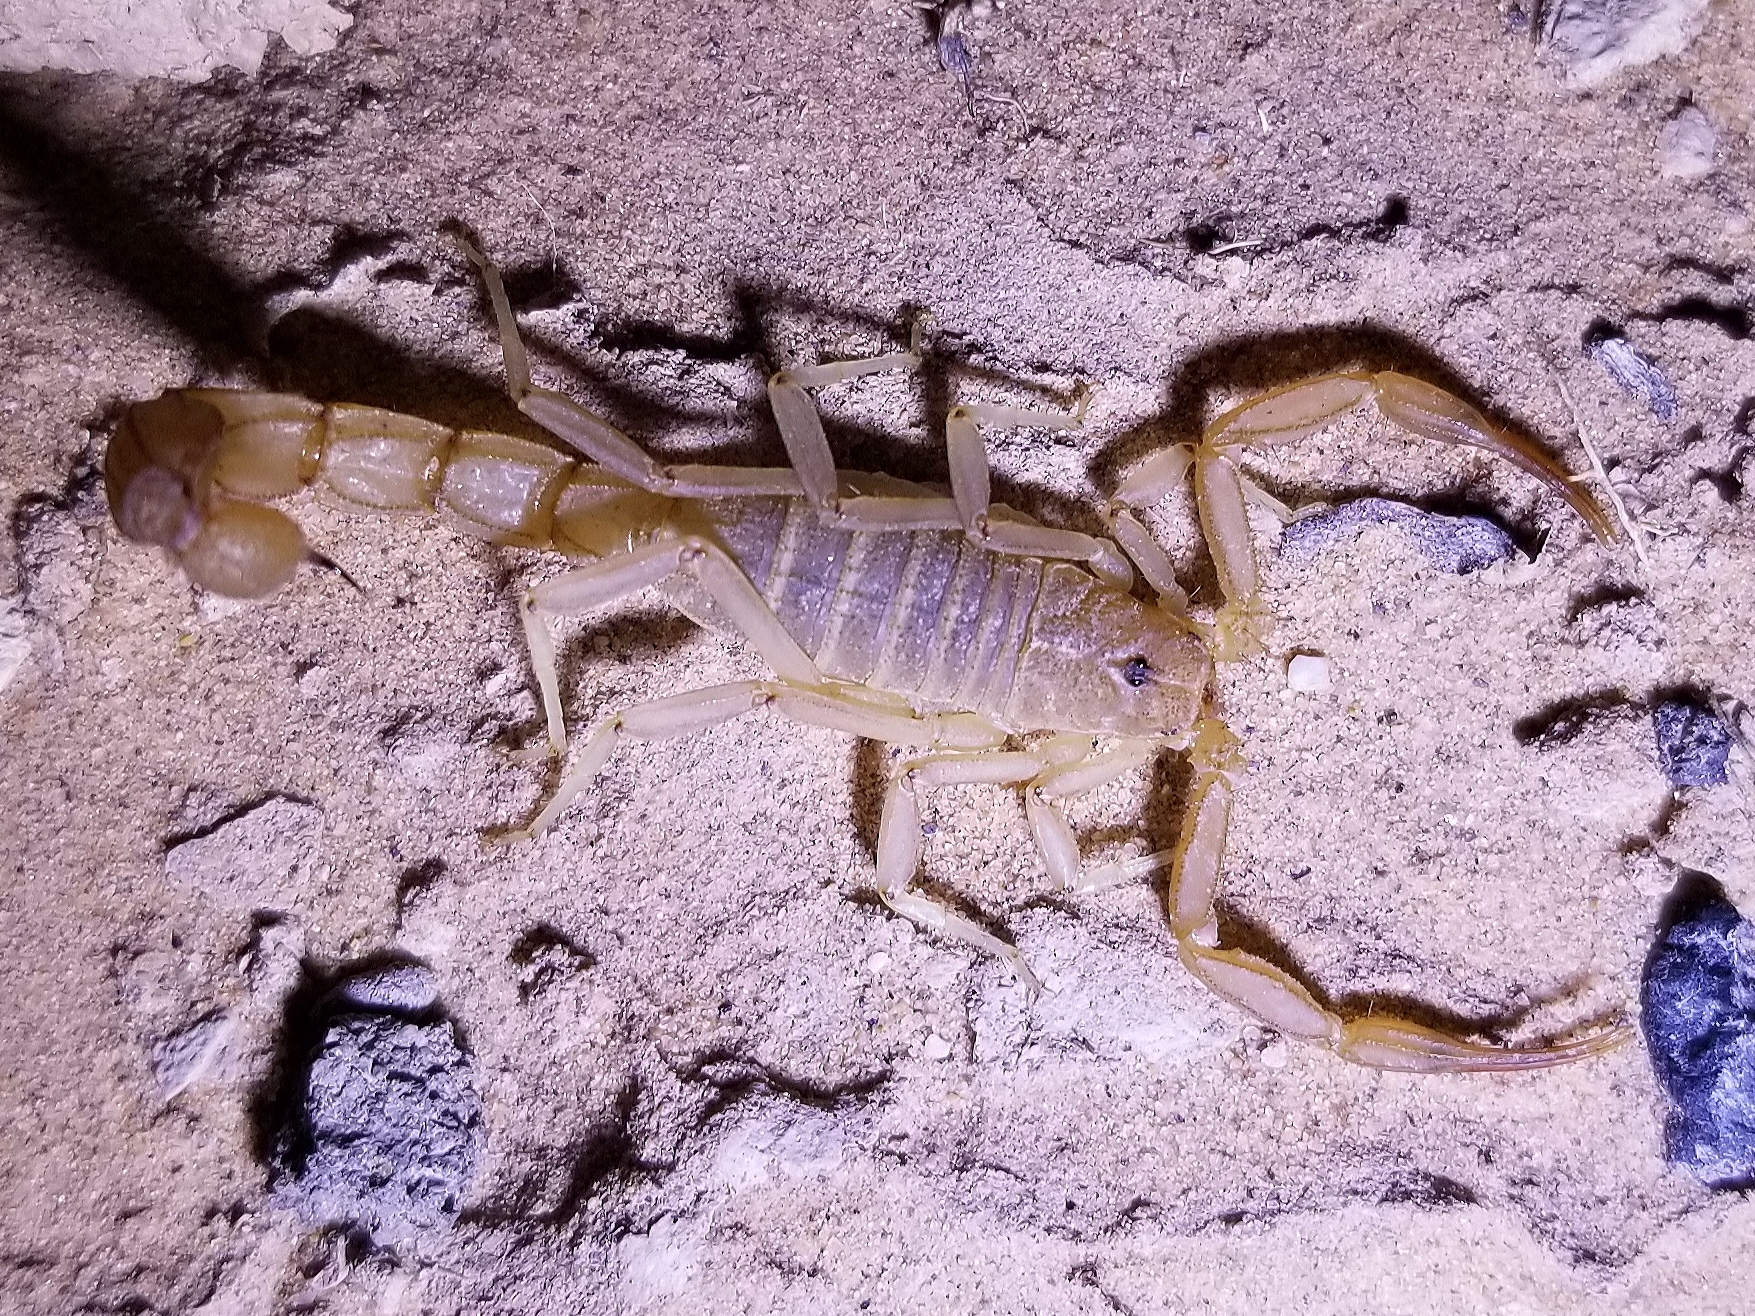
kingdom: Animalia
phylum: Arthropoda
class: Arachnida
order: Scorpiones
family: Vaejovidae
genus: Paravaejovis
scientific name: Paravaejovis waeringi
